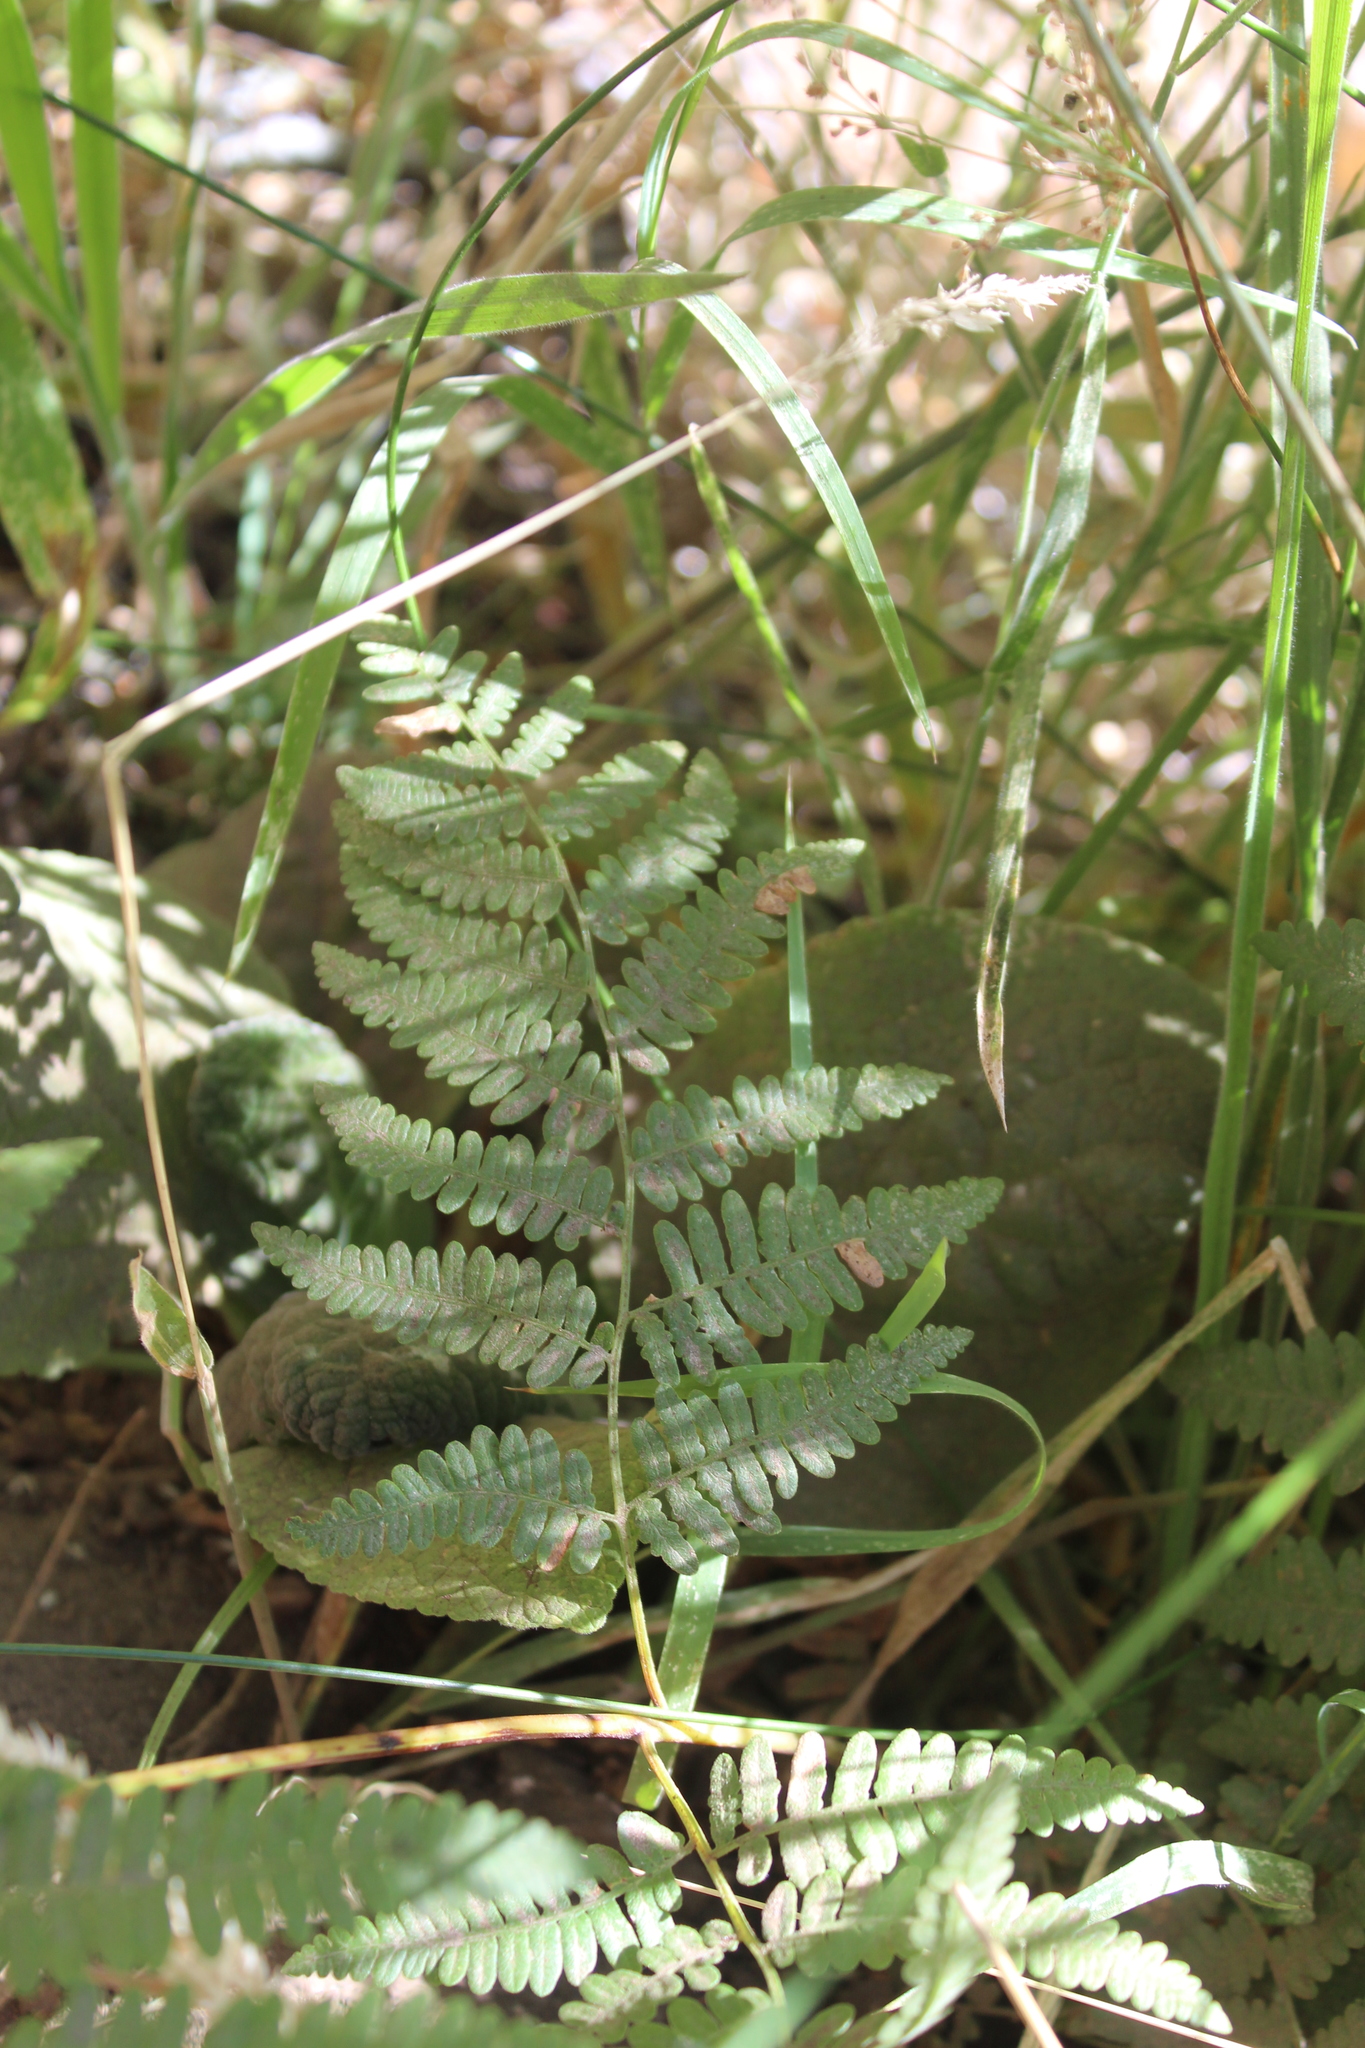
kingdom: Plantae
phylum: Tracheophyta
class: Polypodiopsida
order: Polypodiales
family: Dennstaedtiaceae
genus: Pteridium
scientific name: Pteridium aquilinum
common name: Bracken
